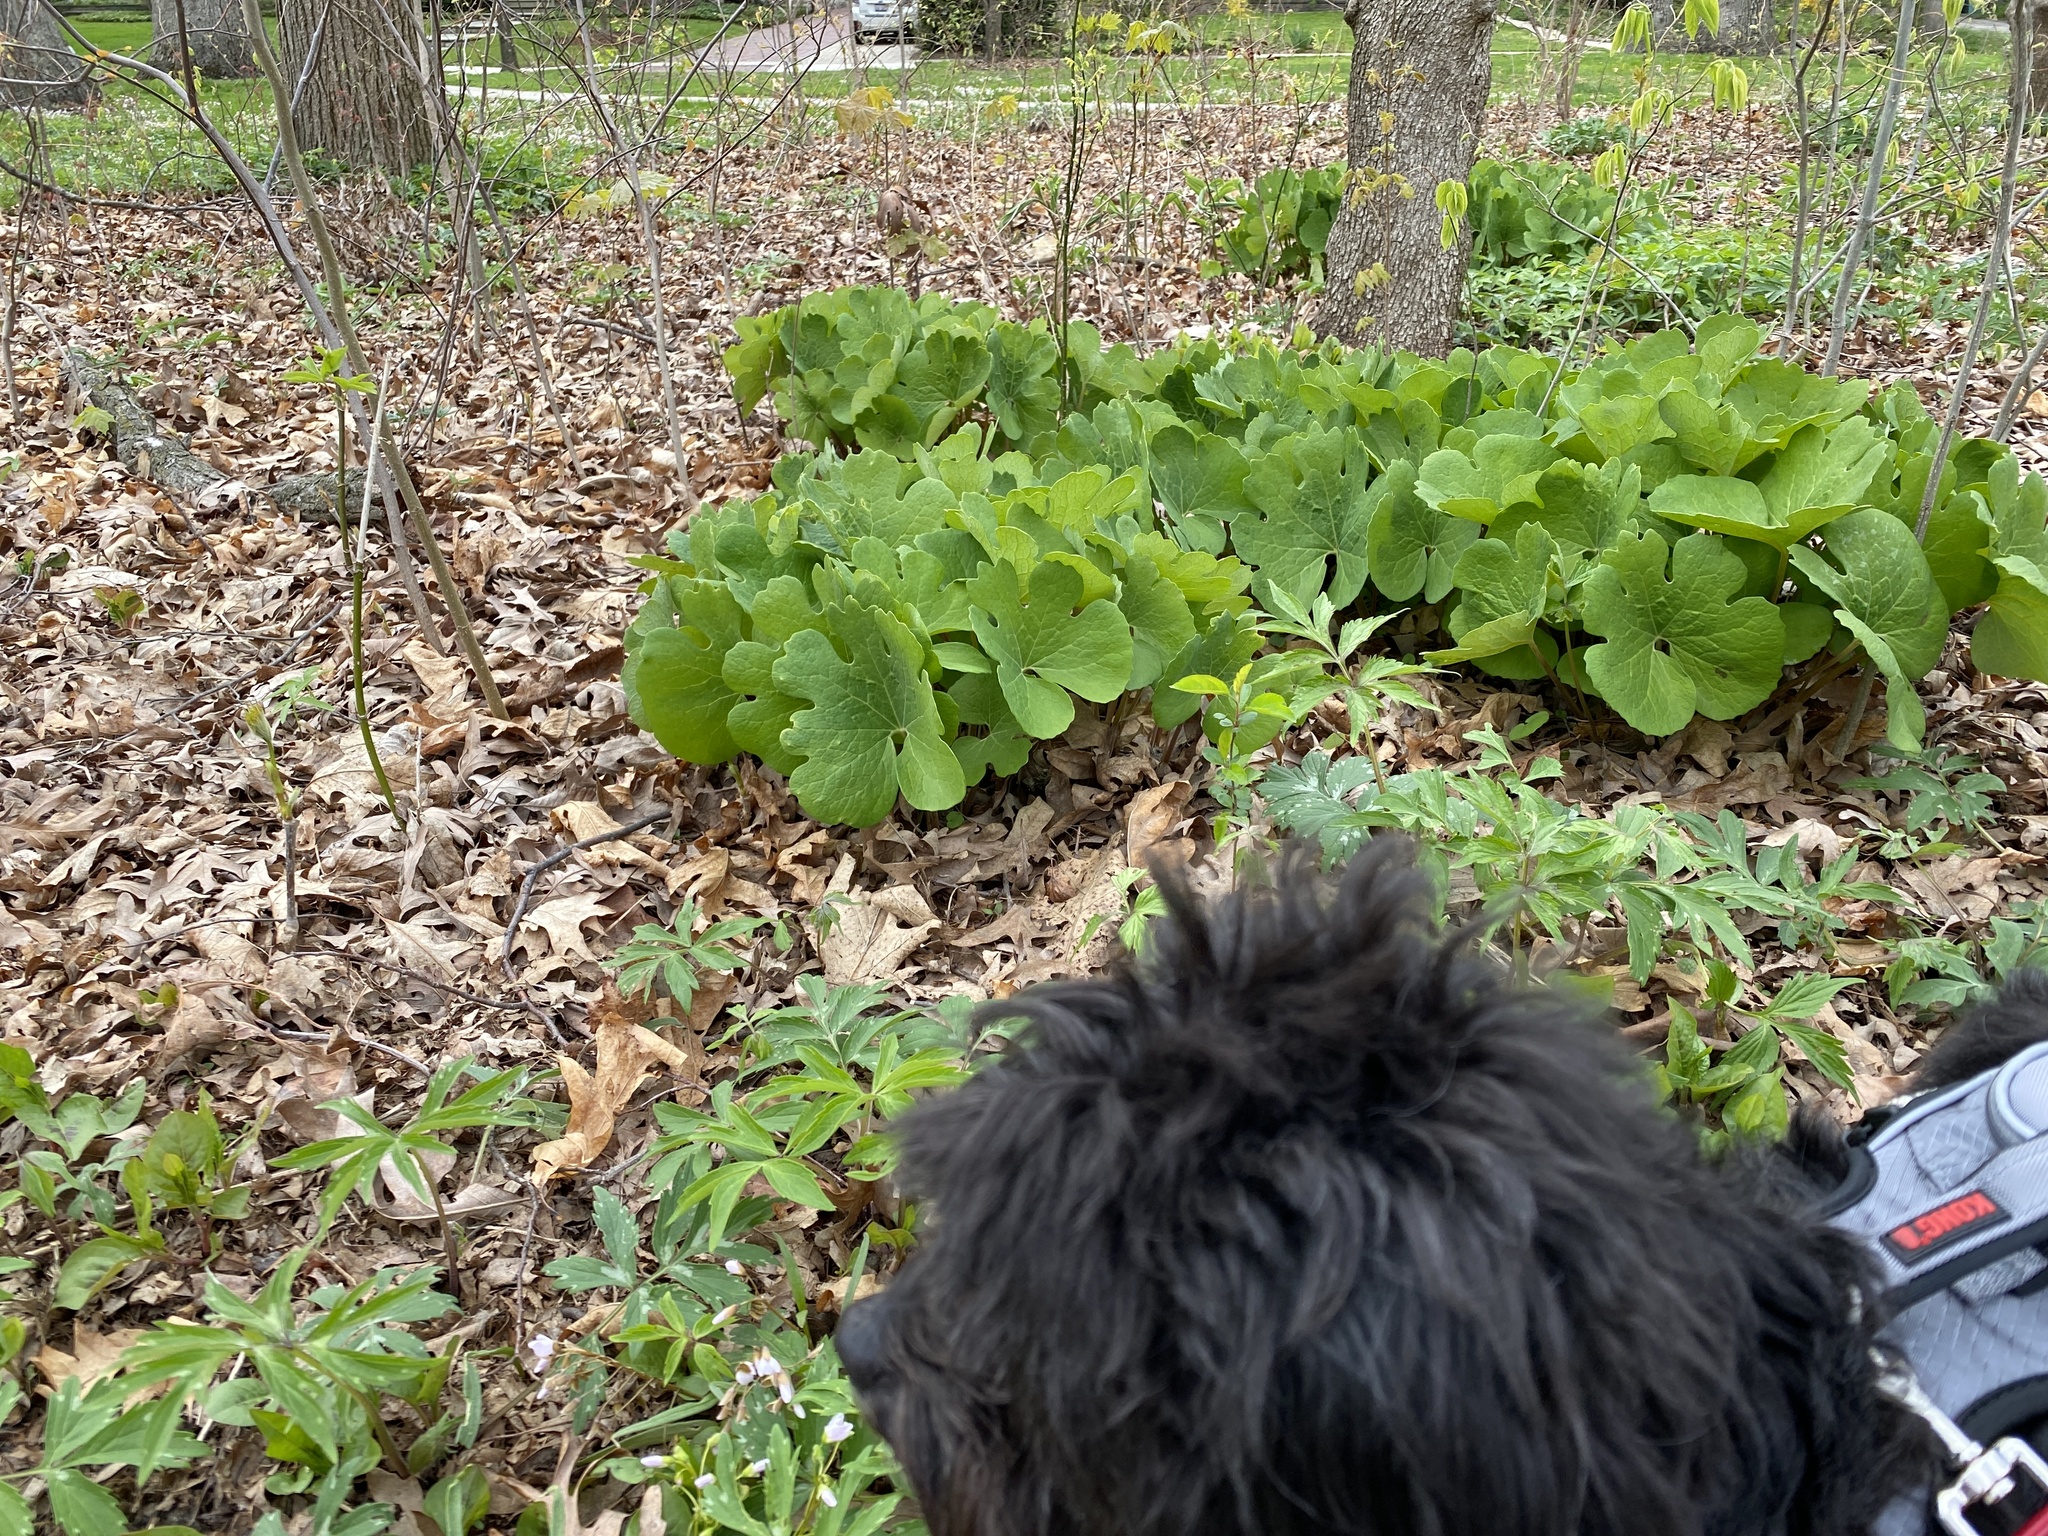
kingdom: Plantae
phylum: Tracheophyta
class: Magnoliopsida
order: Ranunculales
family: Papaveraceae
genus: Sanguinaria
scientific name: Sanguinaria canadensis
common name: Bloodroot
